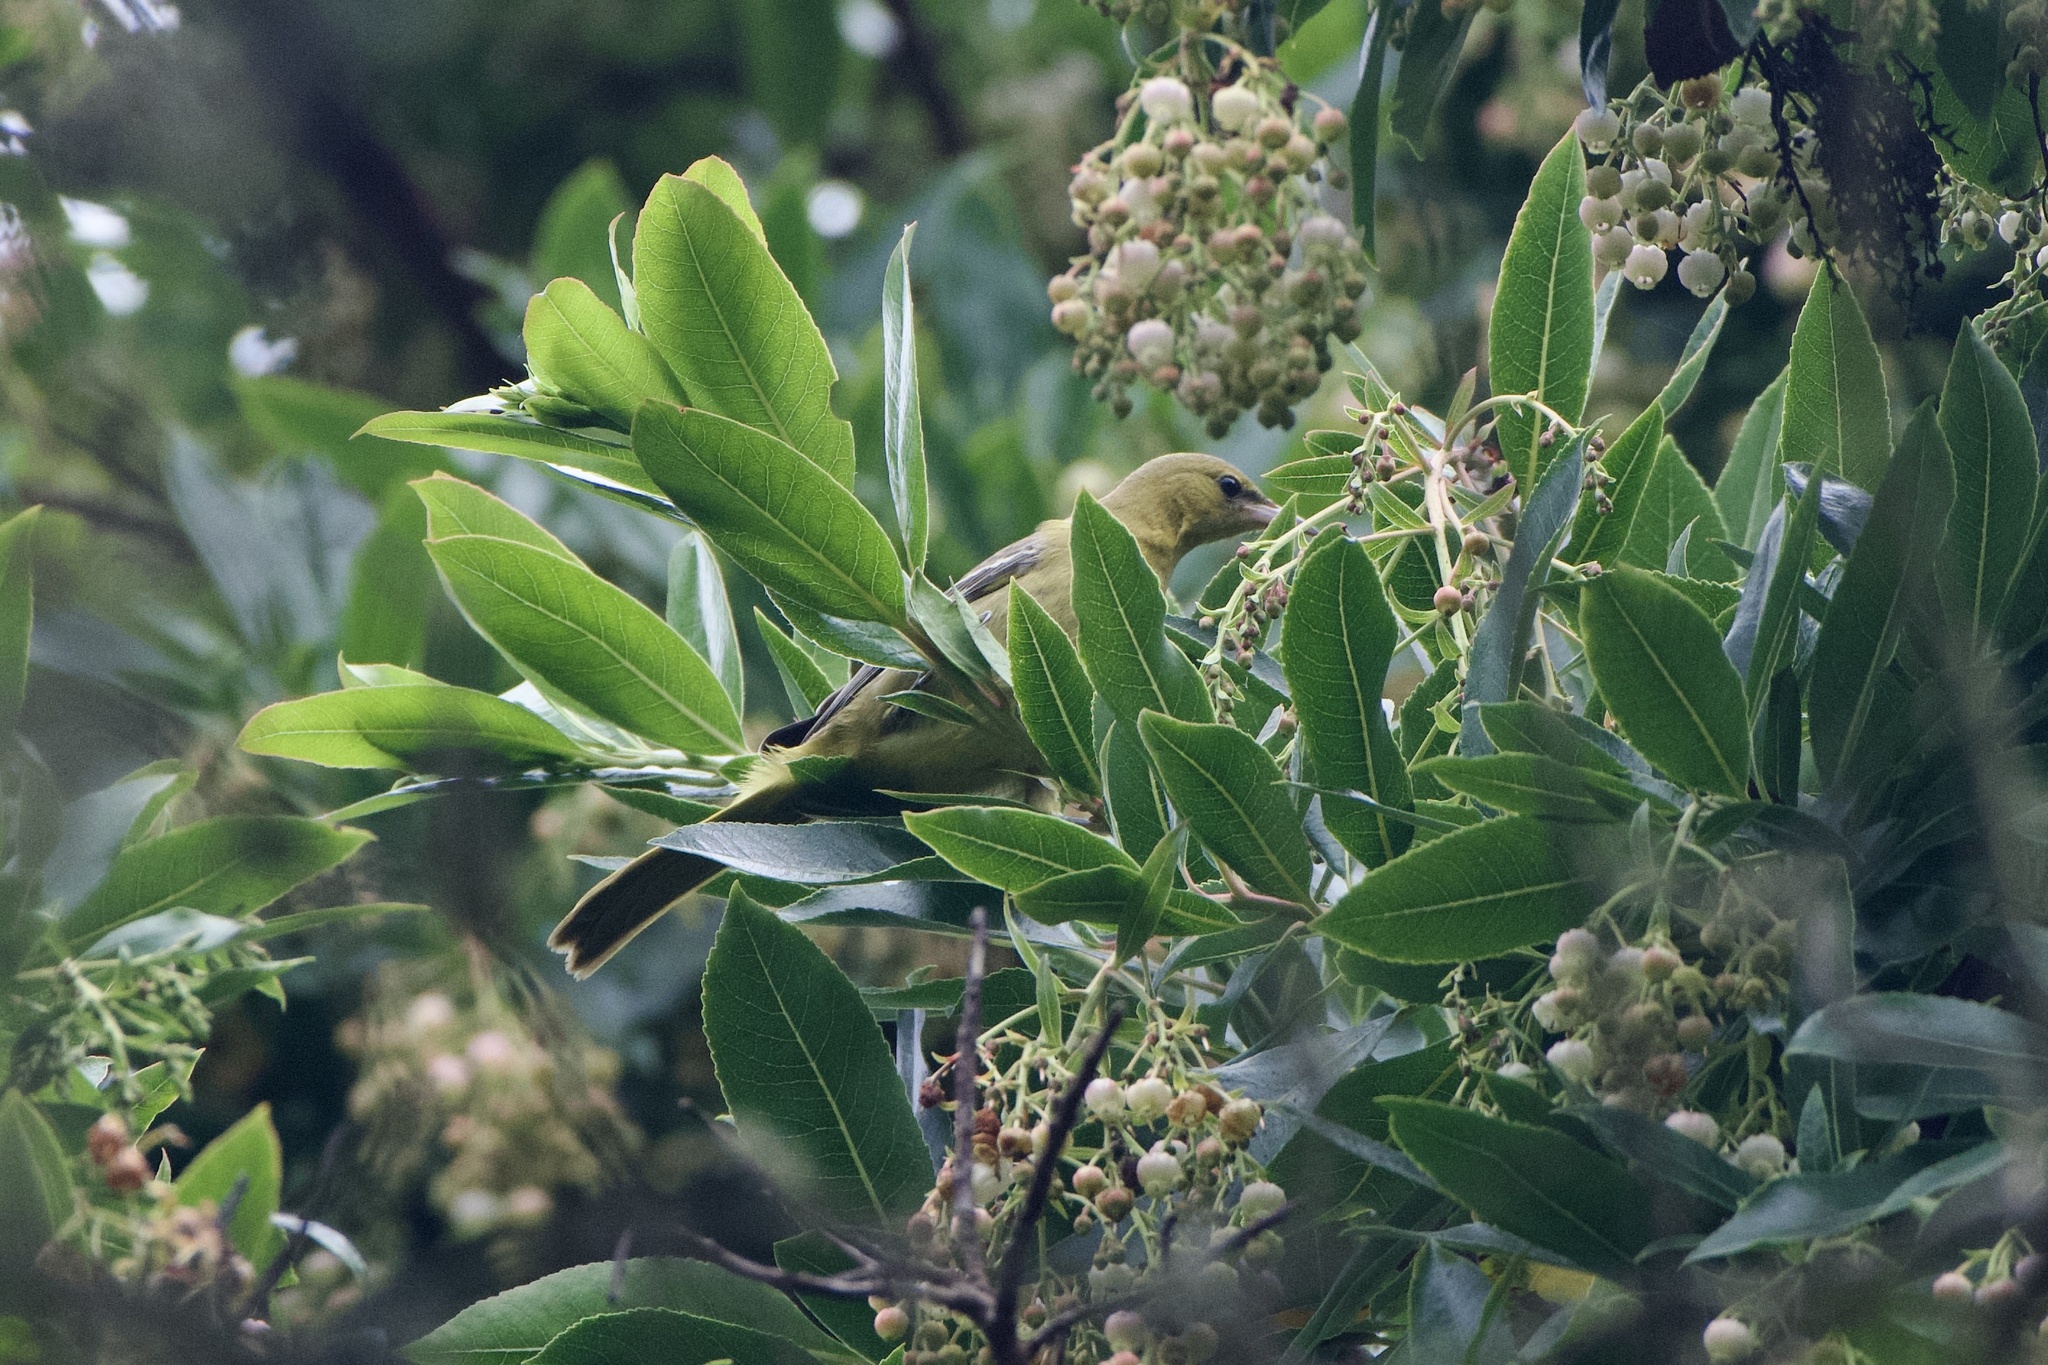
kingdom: Animalia
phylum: Chordata
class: Aves
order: Passeriformes
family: Icteridae
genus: Icterus
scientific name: Icterus cucullatus
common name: Hooded oriole
